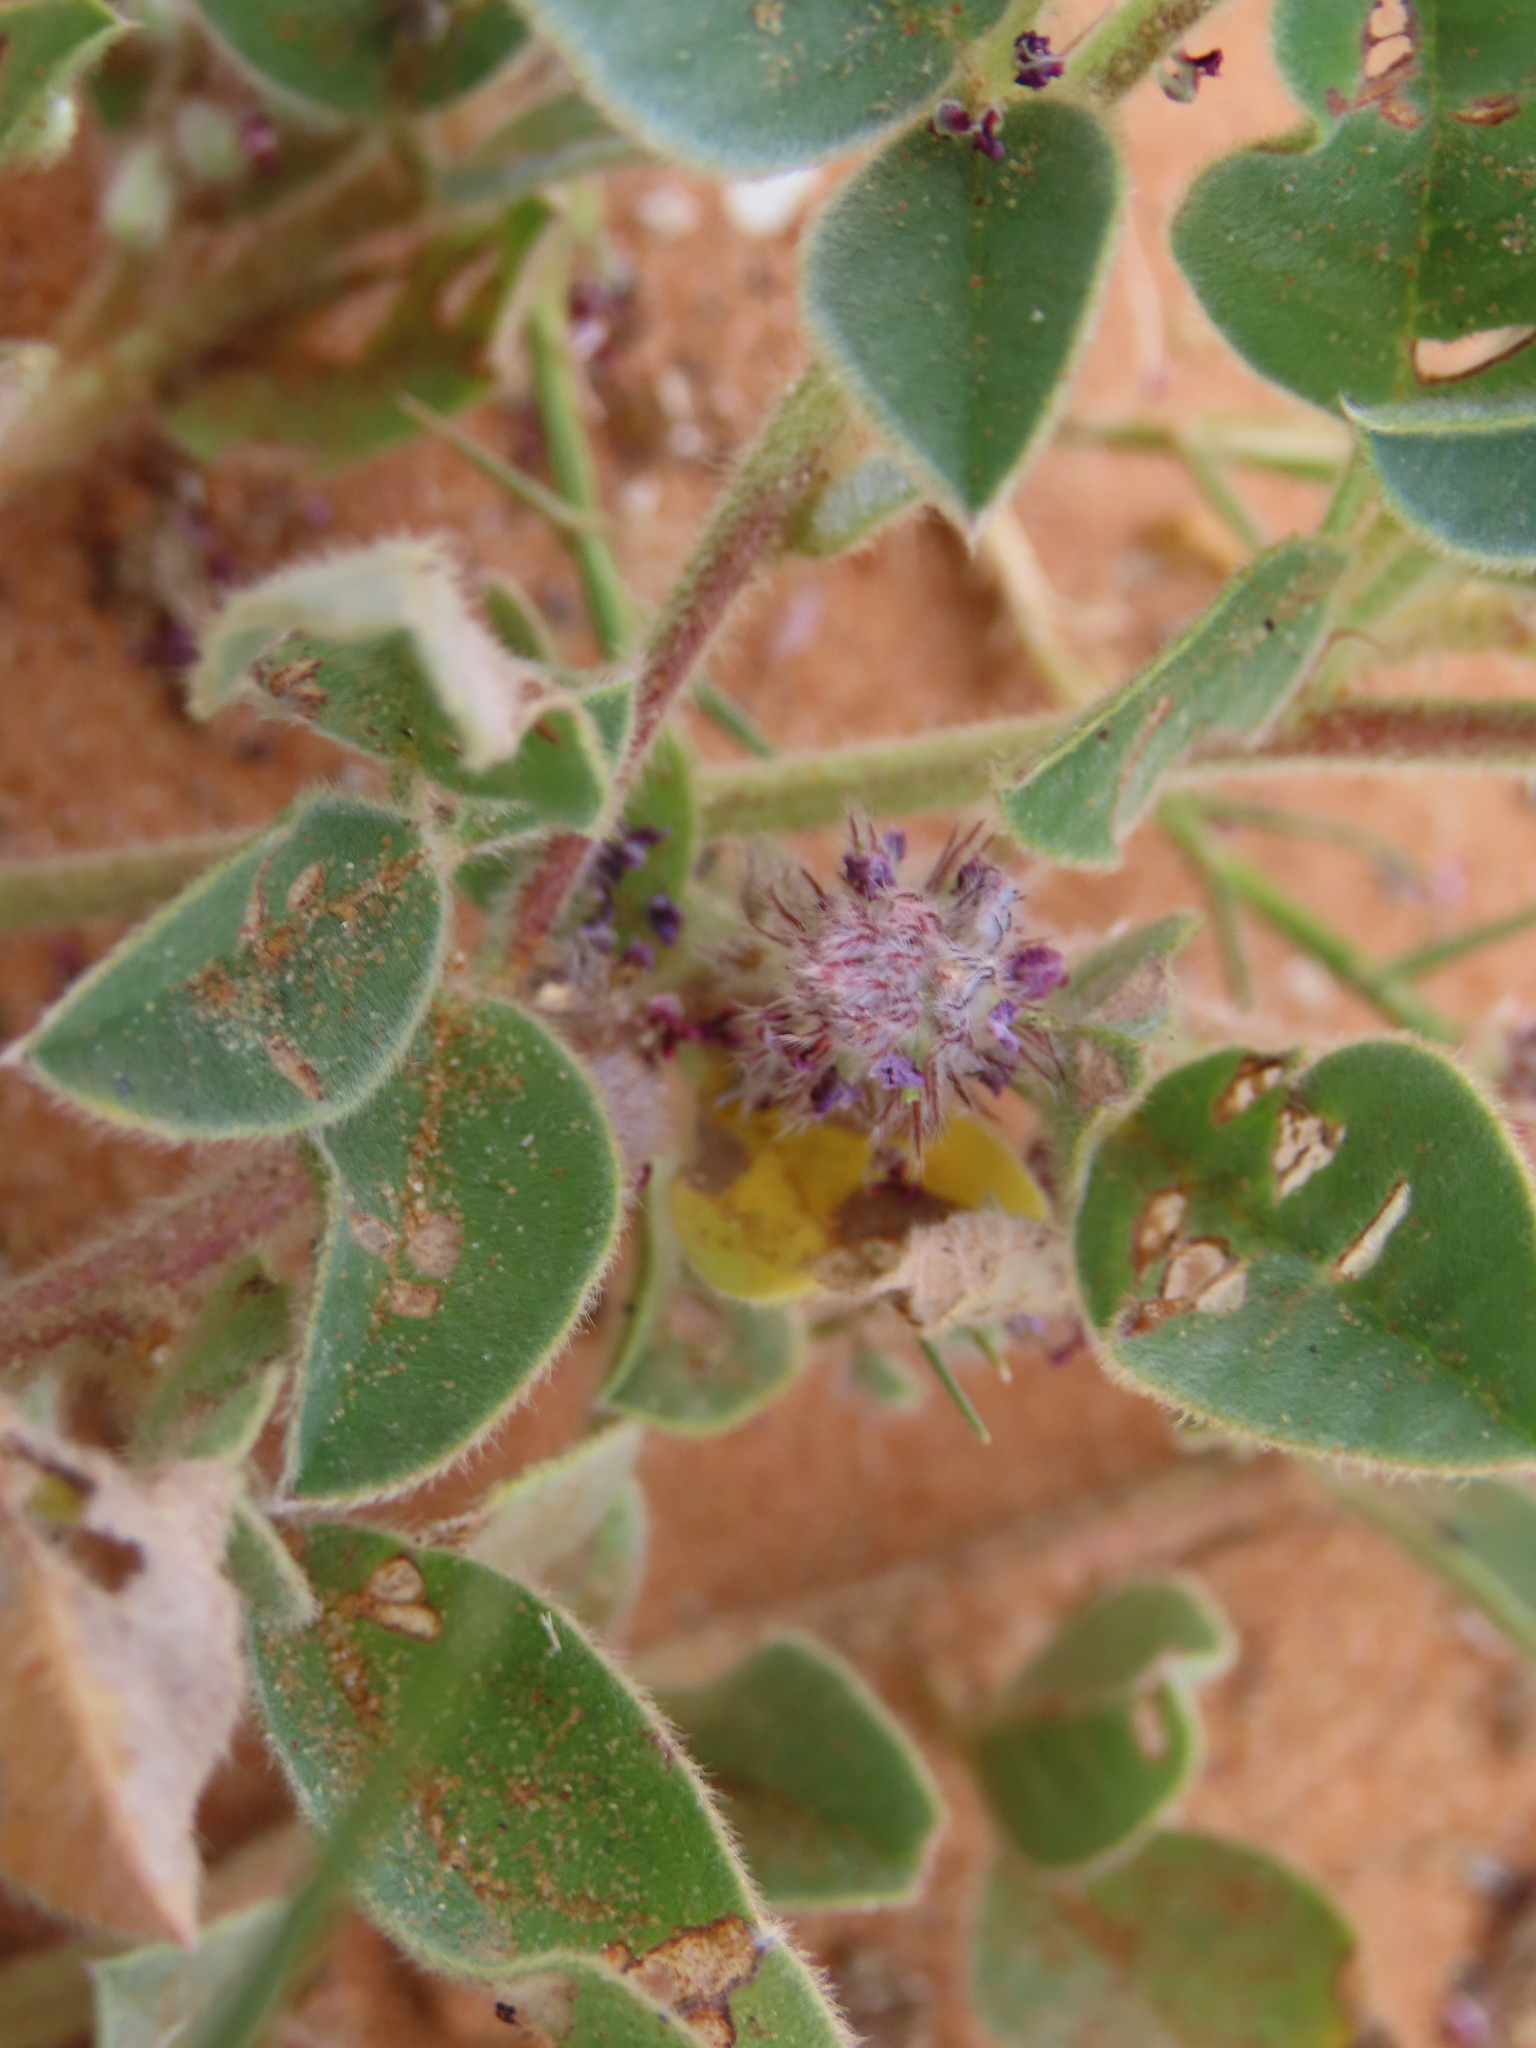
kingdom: Plantae
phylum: Tracheophyta
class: Magnoliopsida
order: Fabales
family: Fabaceae
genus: Indigofera
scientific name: Indigofera flavicans
